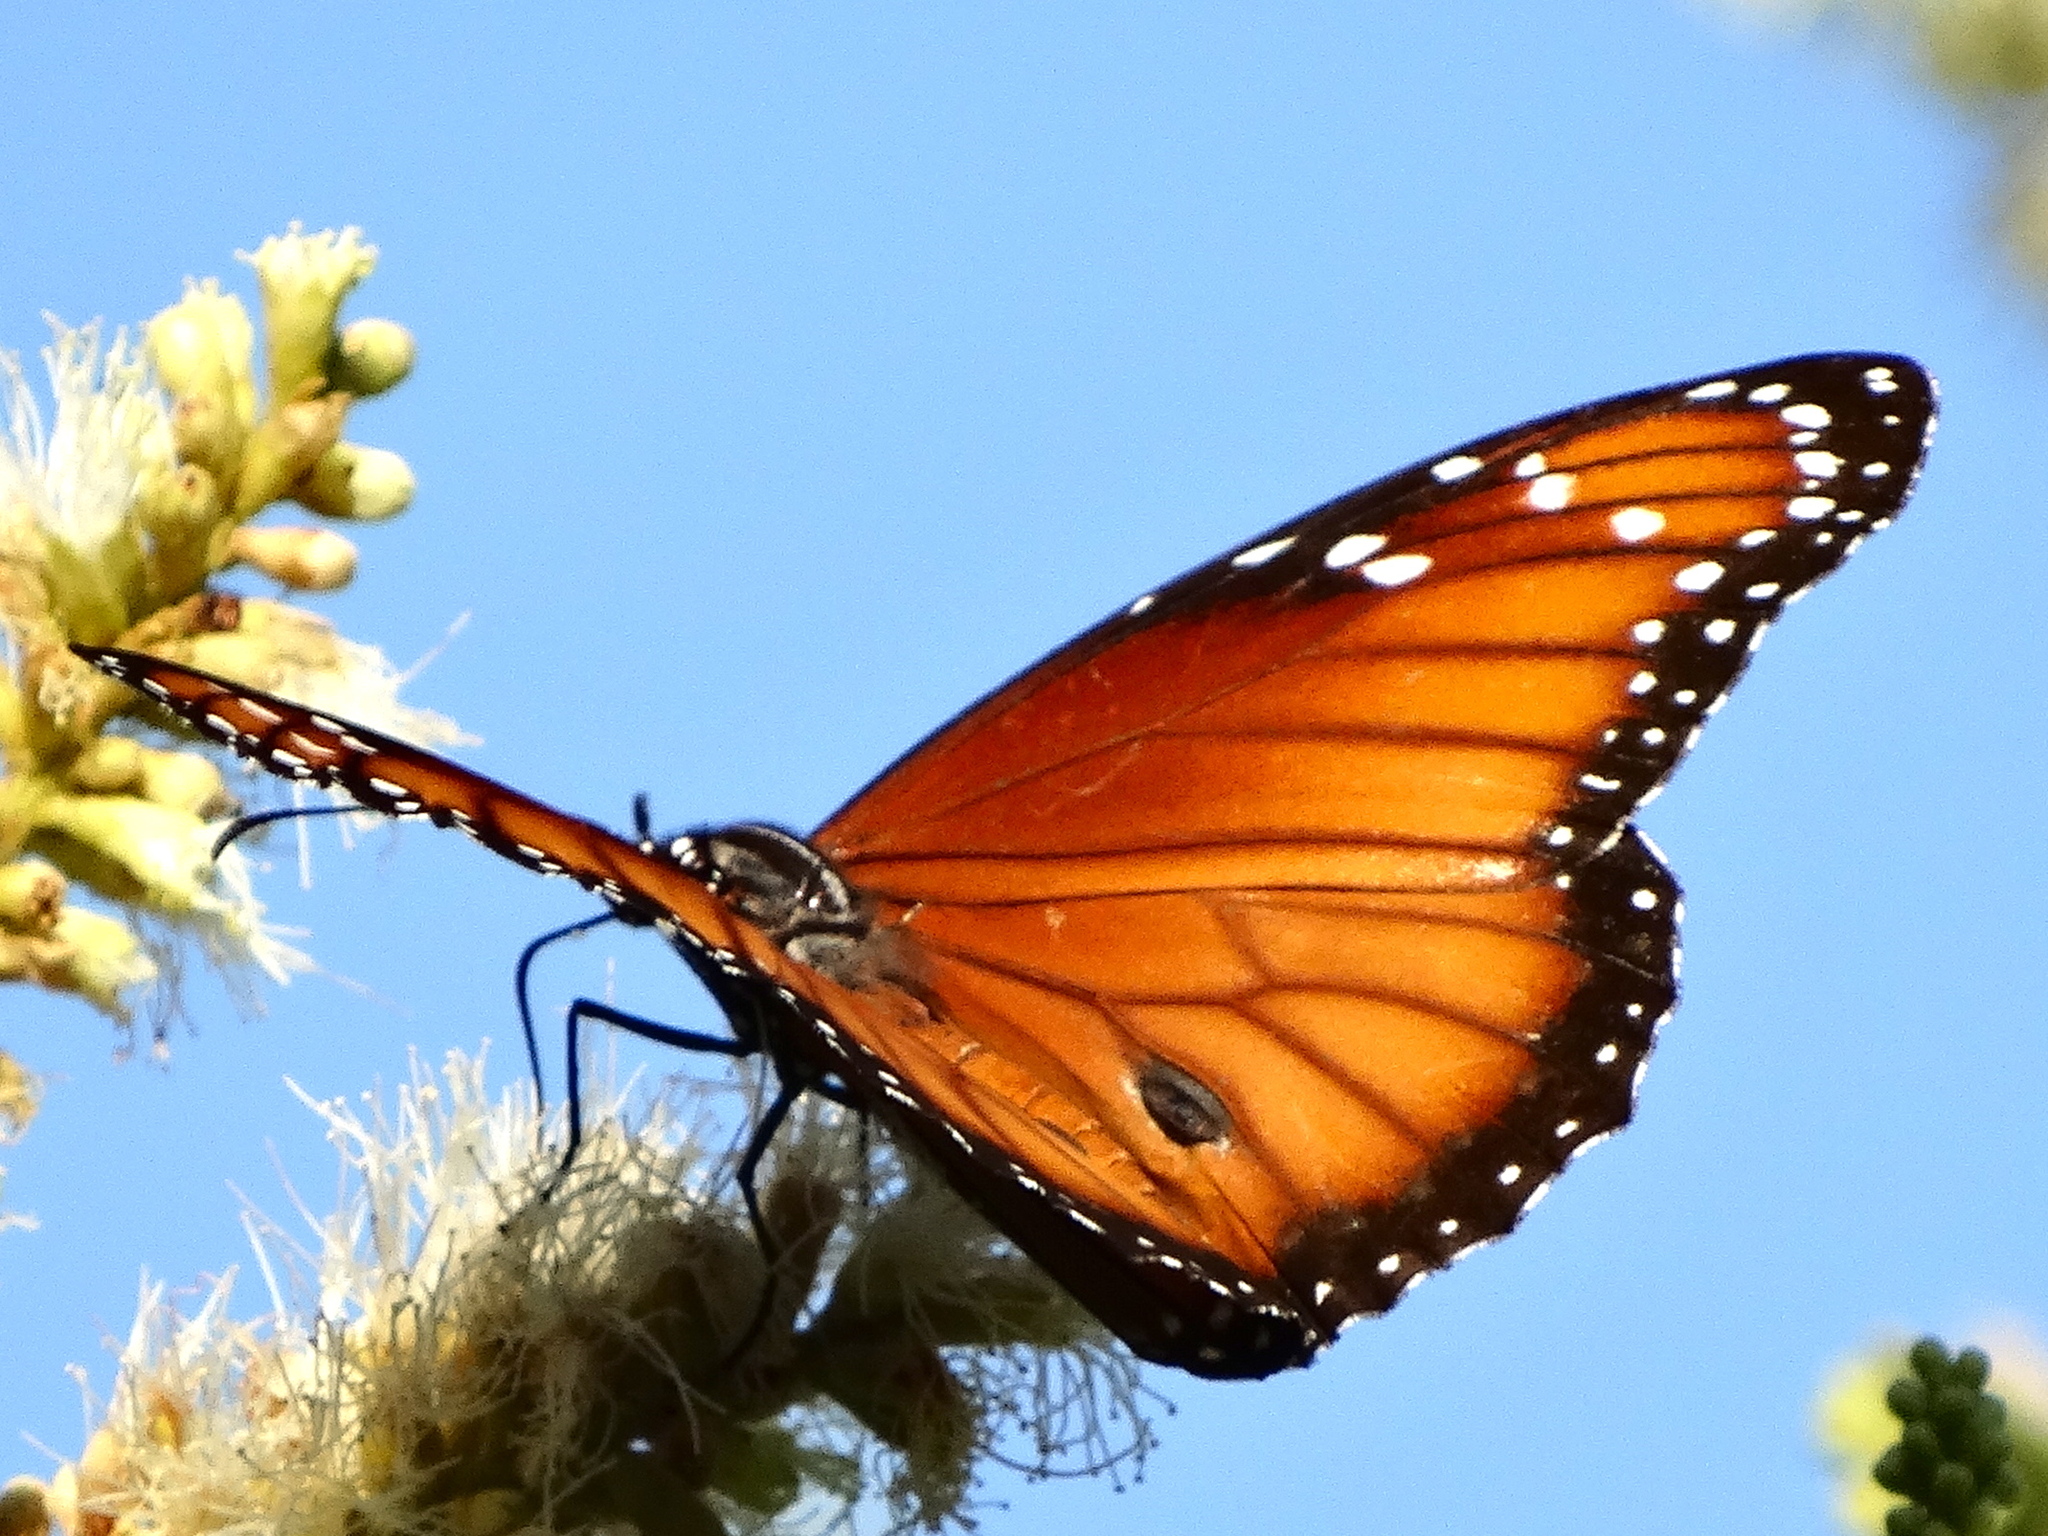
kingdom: Animalia
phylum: Arthropoda
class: Insecta
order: Lepidoptera
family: Nymphalidae
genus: Danaus
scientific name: Danaus eresimus
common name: Soldier
